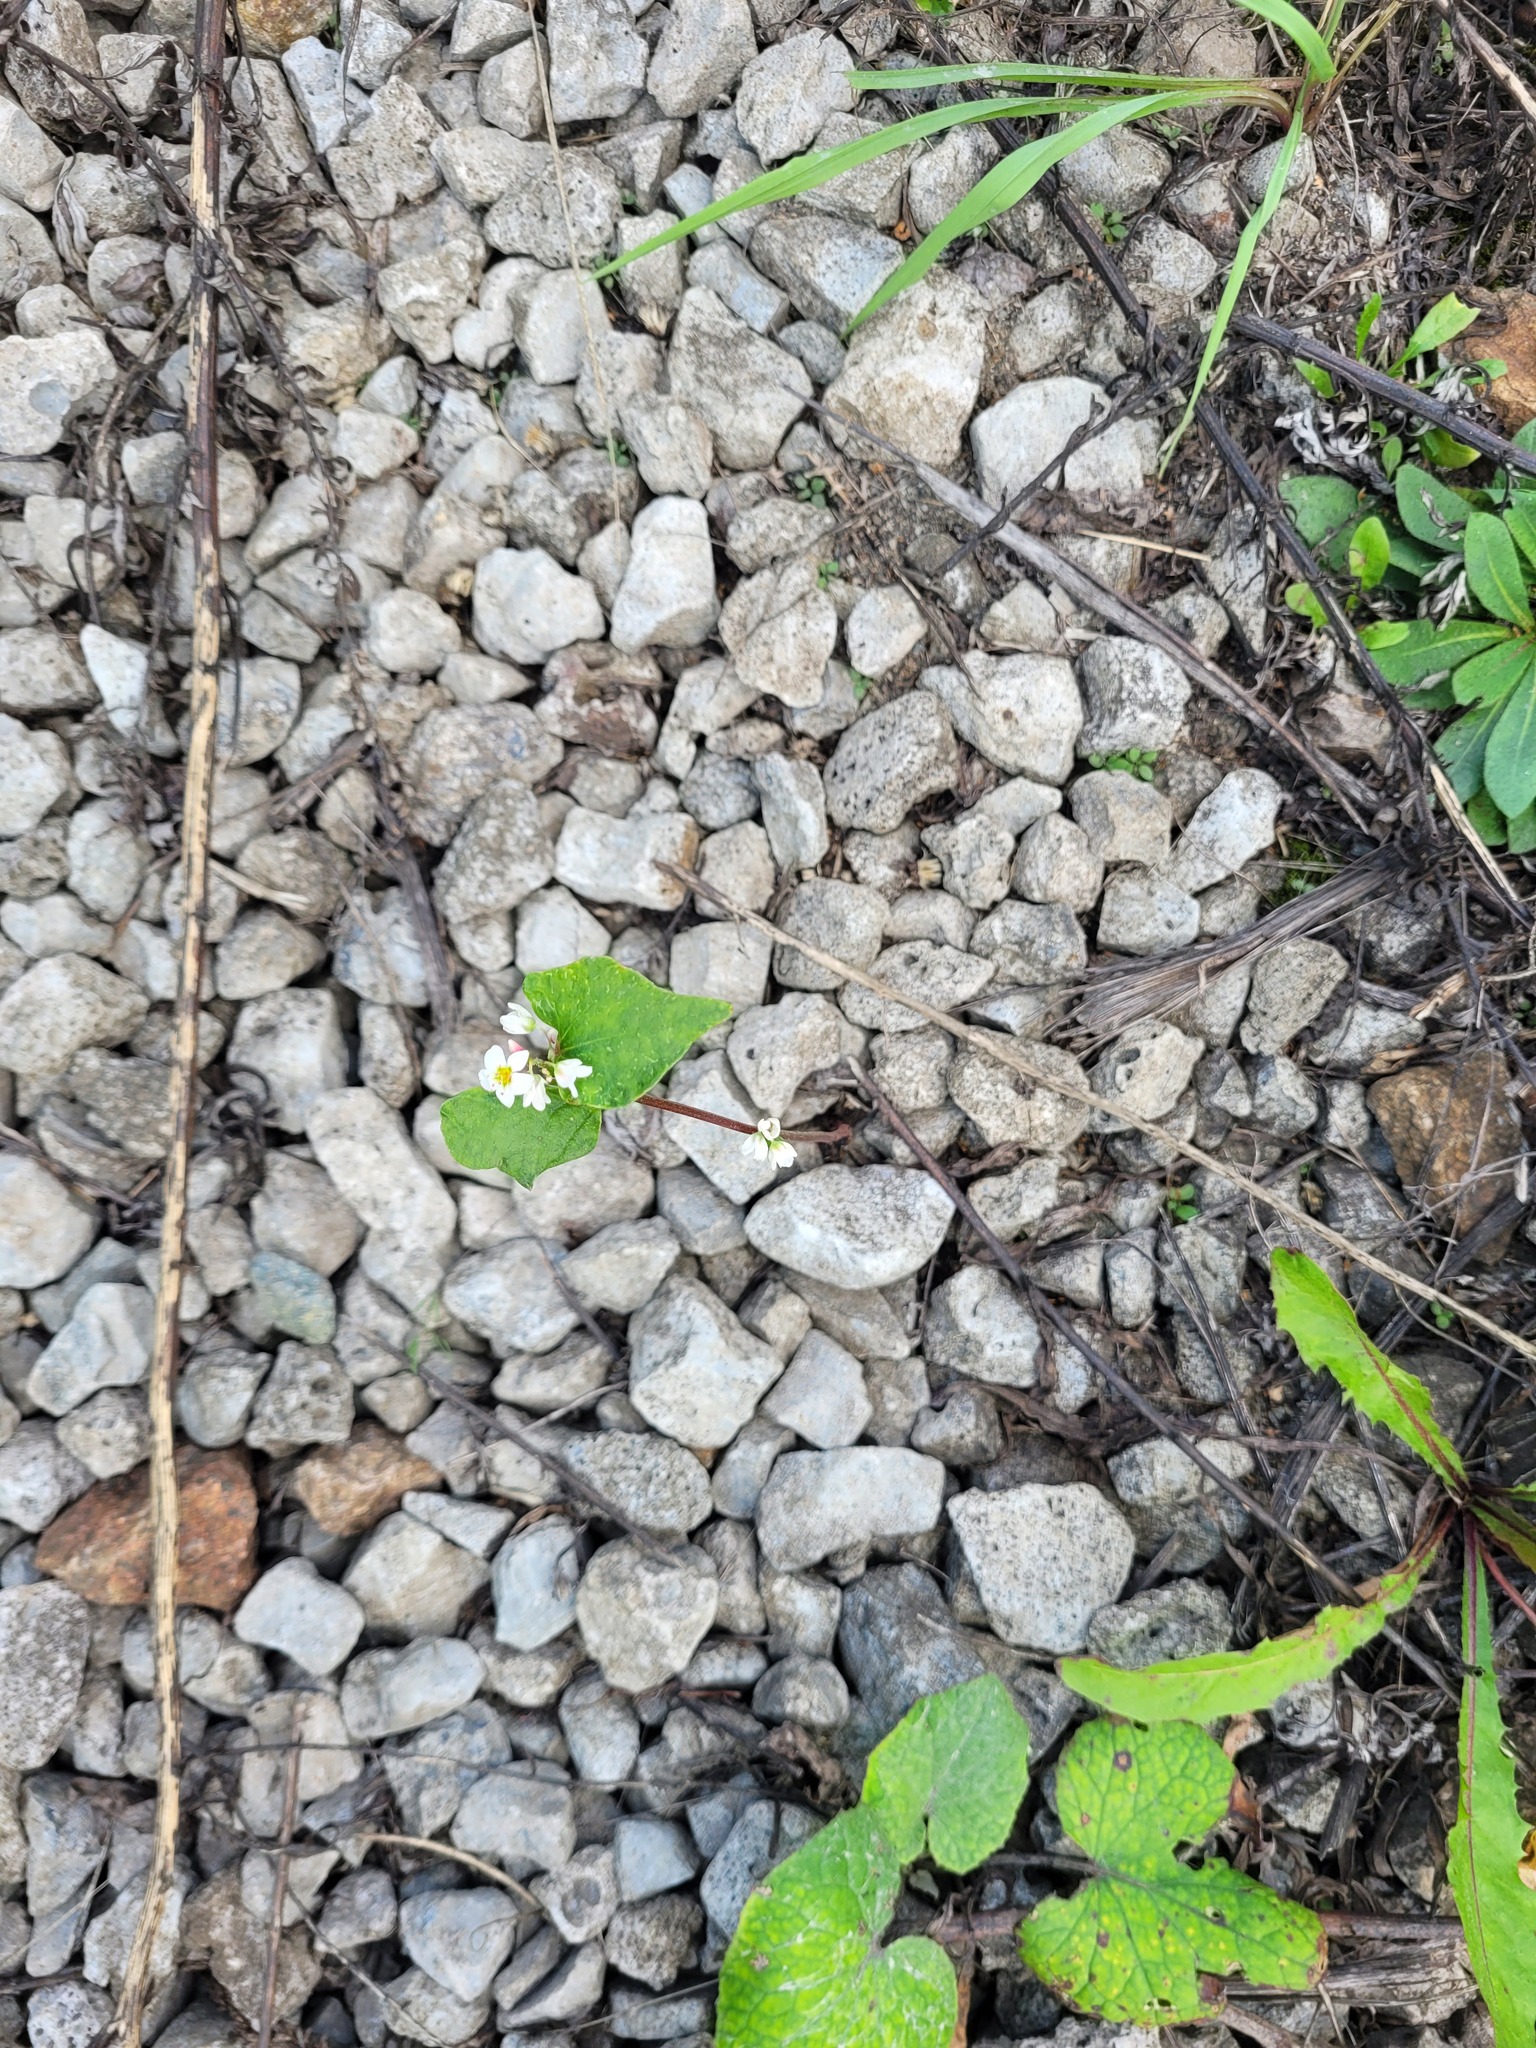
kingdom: Plantae
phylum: Tracheophyta
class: Magnoliopsida
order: Caryophyllales
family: Polygonaceae
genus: Fagopyrum
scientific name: Fagopyrum esculentum
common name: Buckwheat
